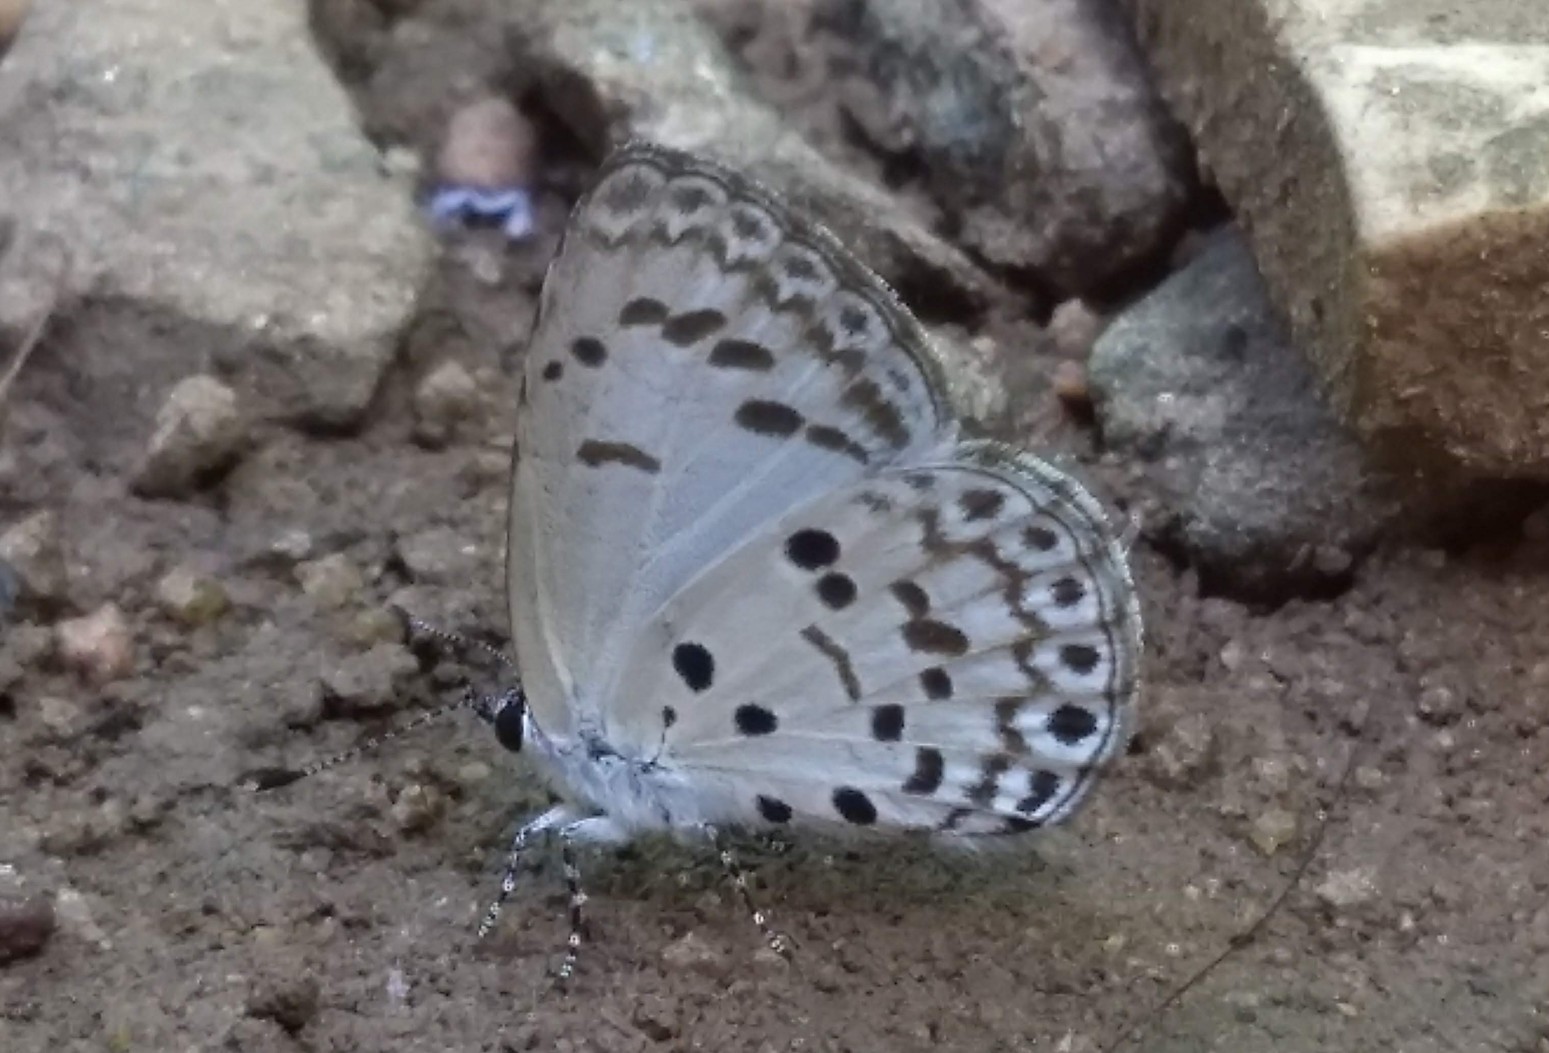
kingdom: Animalia
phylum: Arthropoda
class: Insecta
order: Lepidoptera
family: Lycaenidae
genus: Acytolepis
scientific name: Acytolepis puspa
